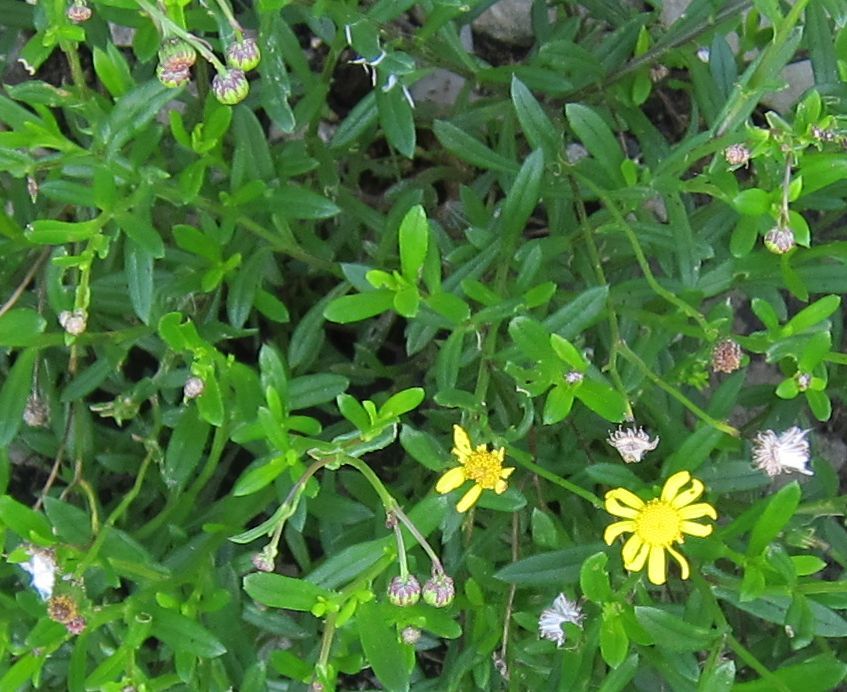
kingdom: Plantae
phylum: Tracheophyta
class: Magnoliopsida
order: Asterales
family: Asteraceae
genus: Senecio
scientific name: Senecio skirrhodon
